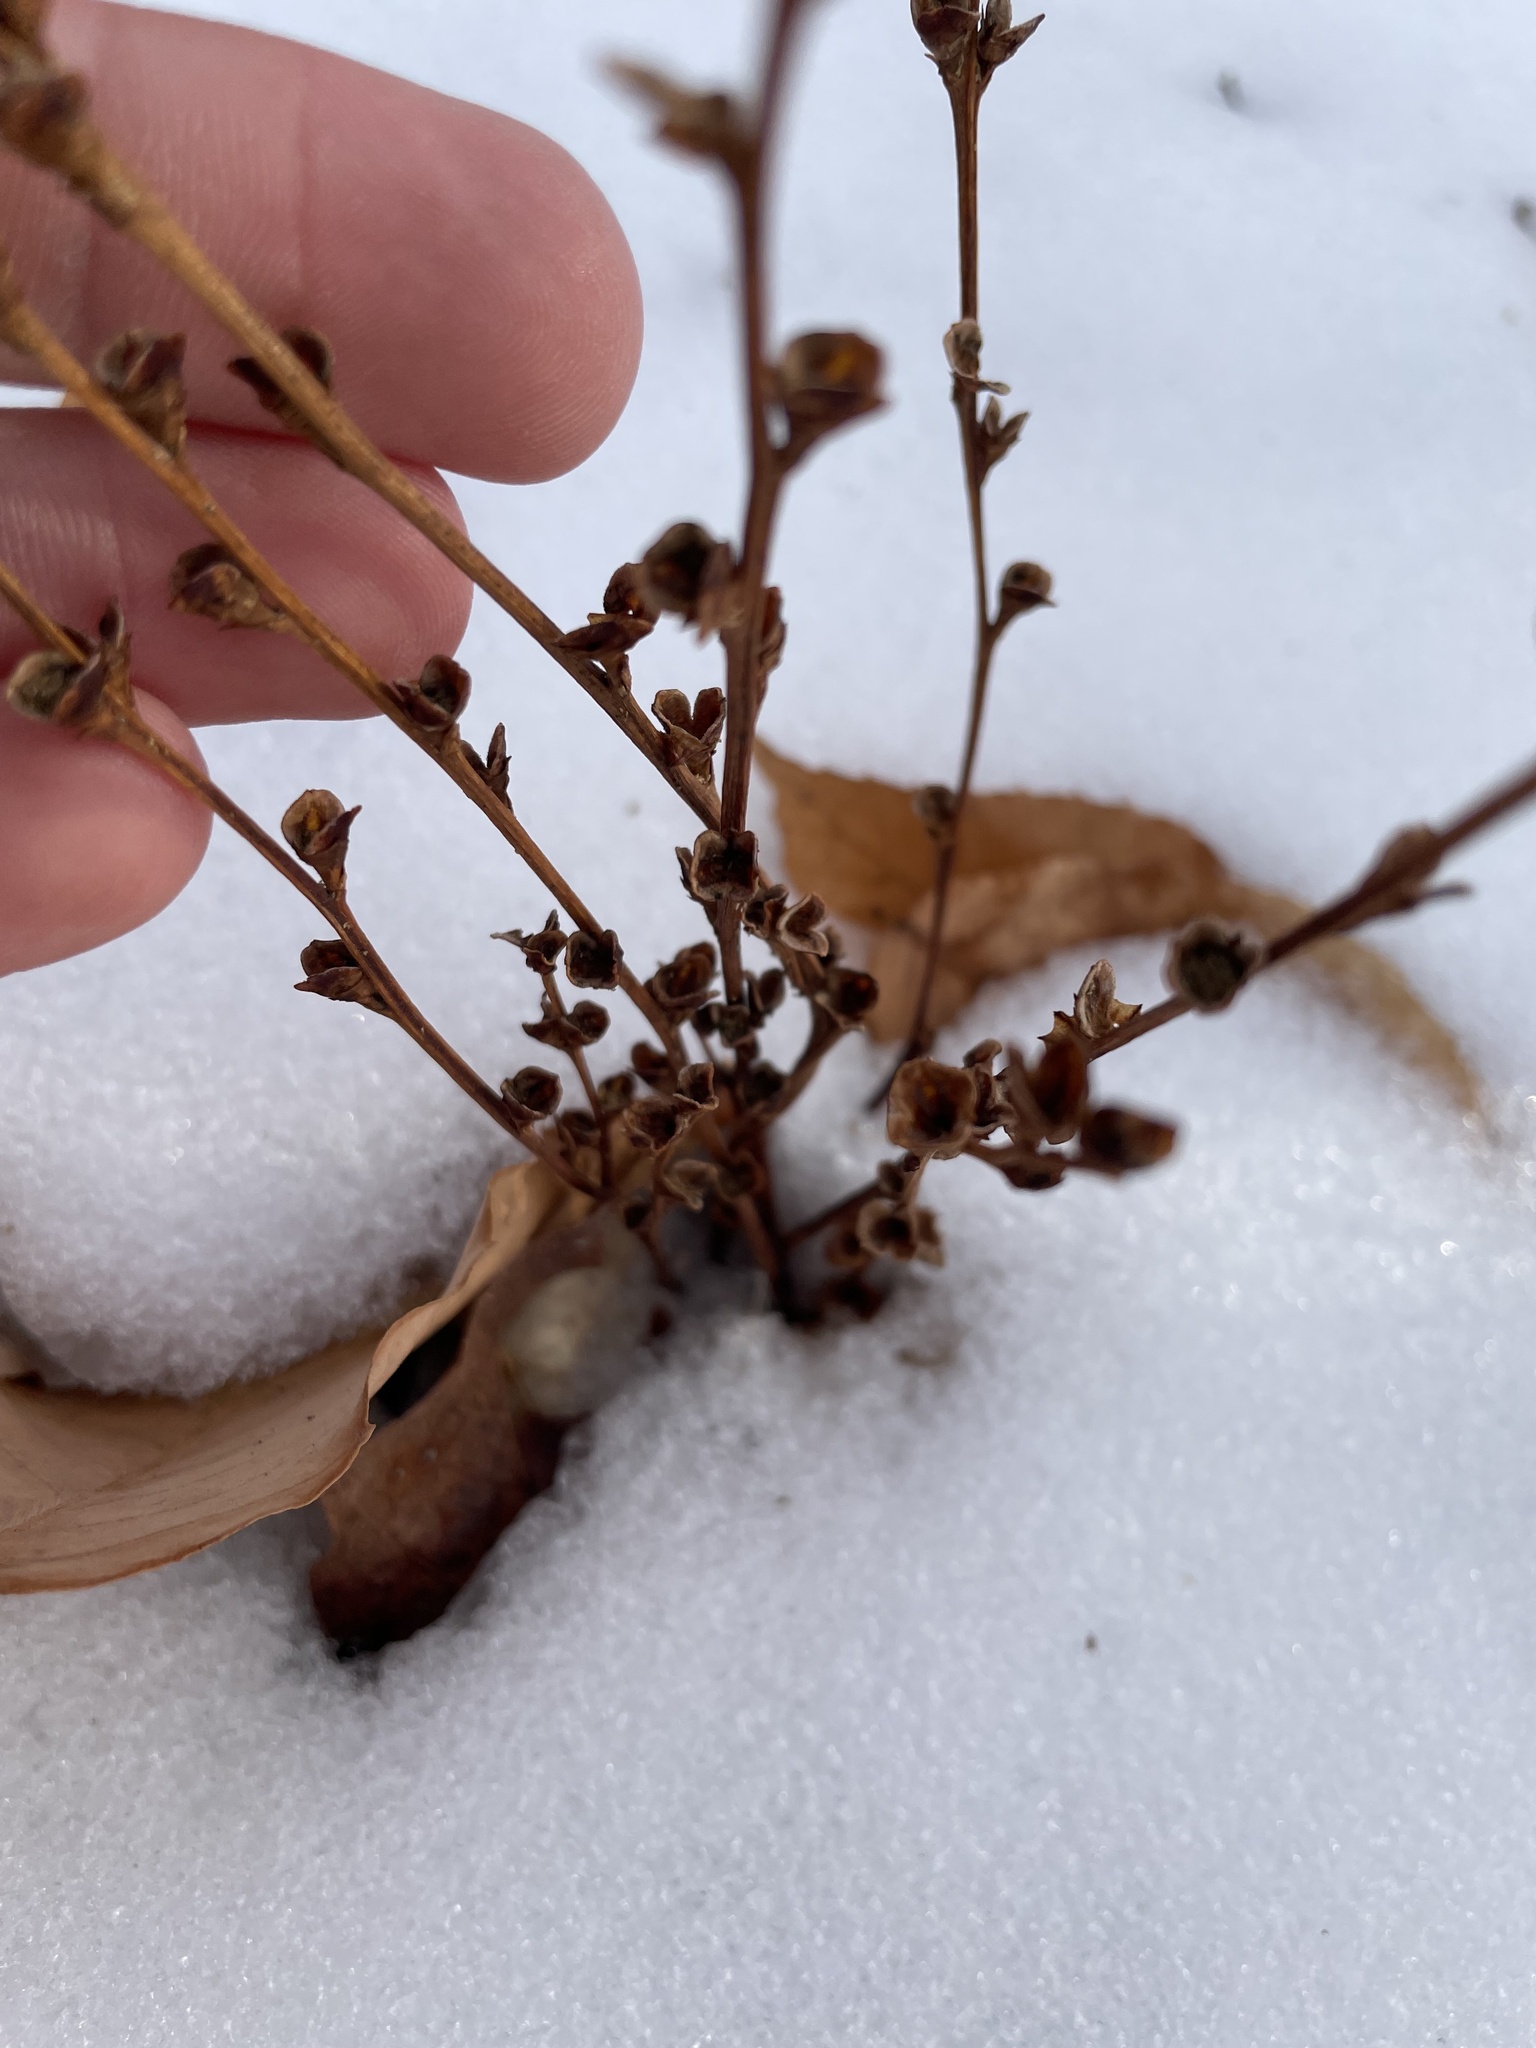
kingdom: Plantae
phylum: Tracheophyta
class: Magnoliopsida
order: Lamiales
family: Orobanchaceae
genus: Epifagus
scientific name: Epifagus virginiana
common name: Beechdrops
